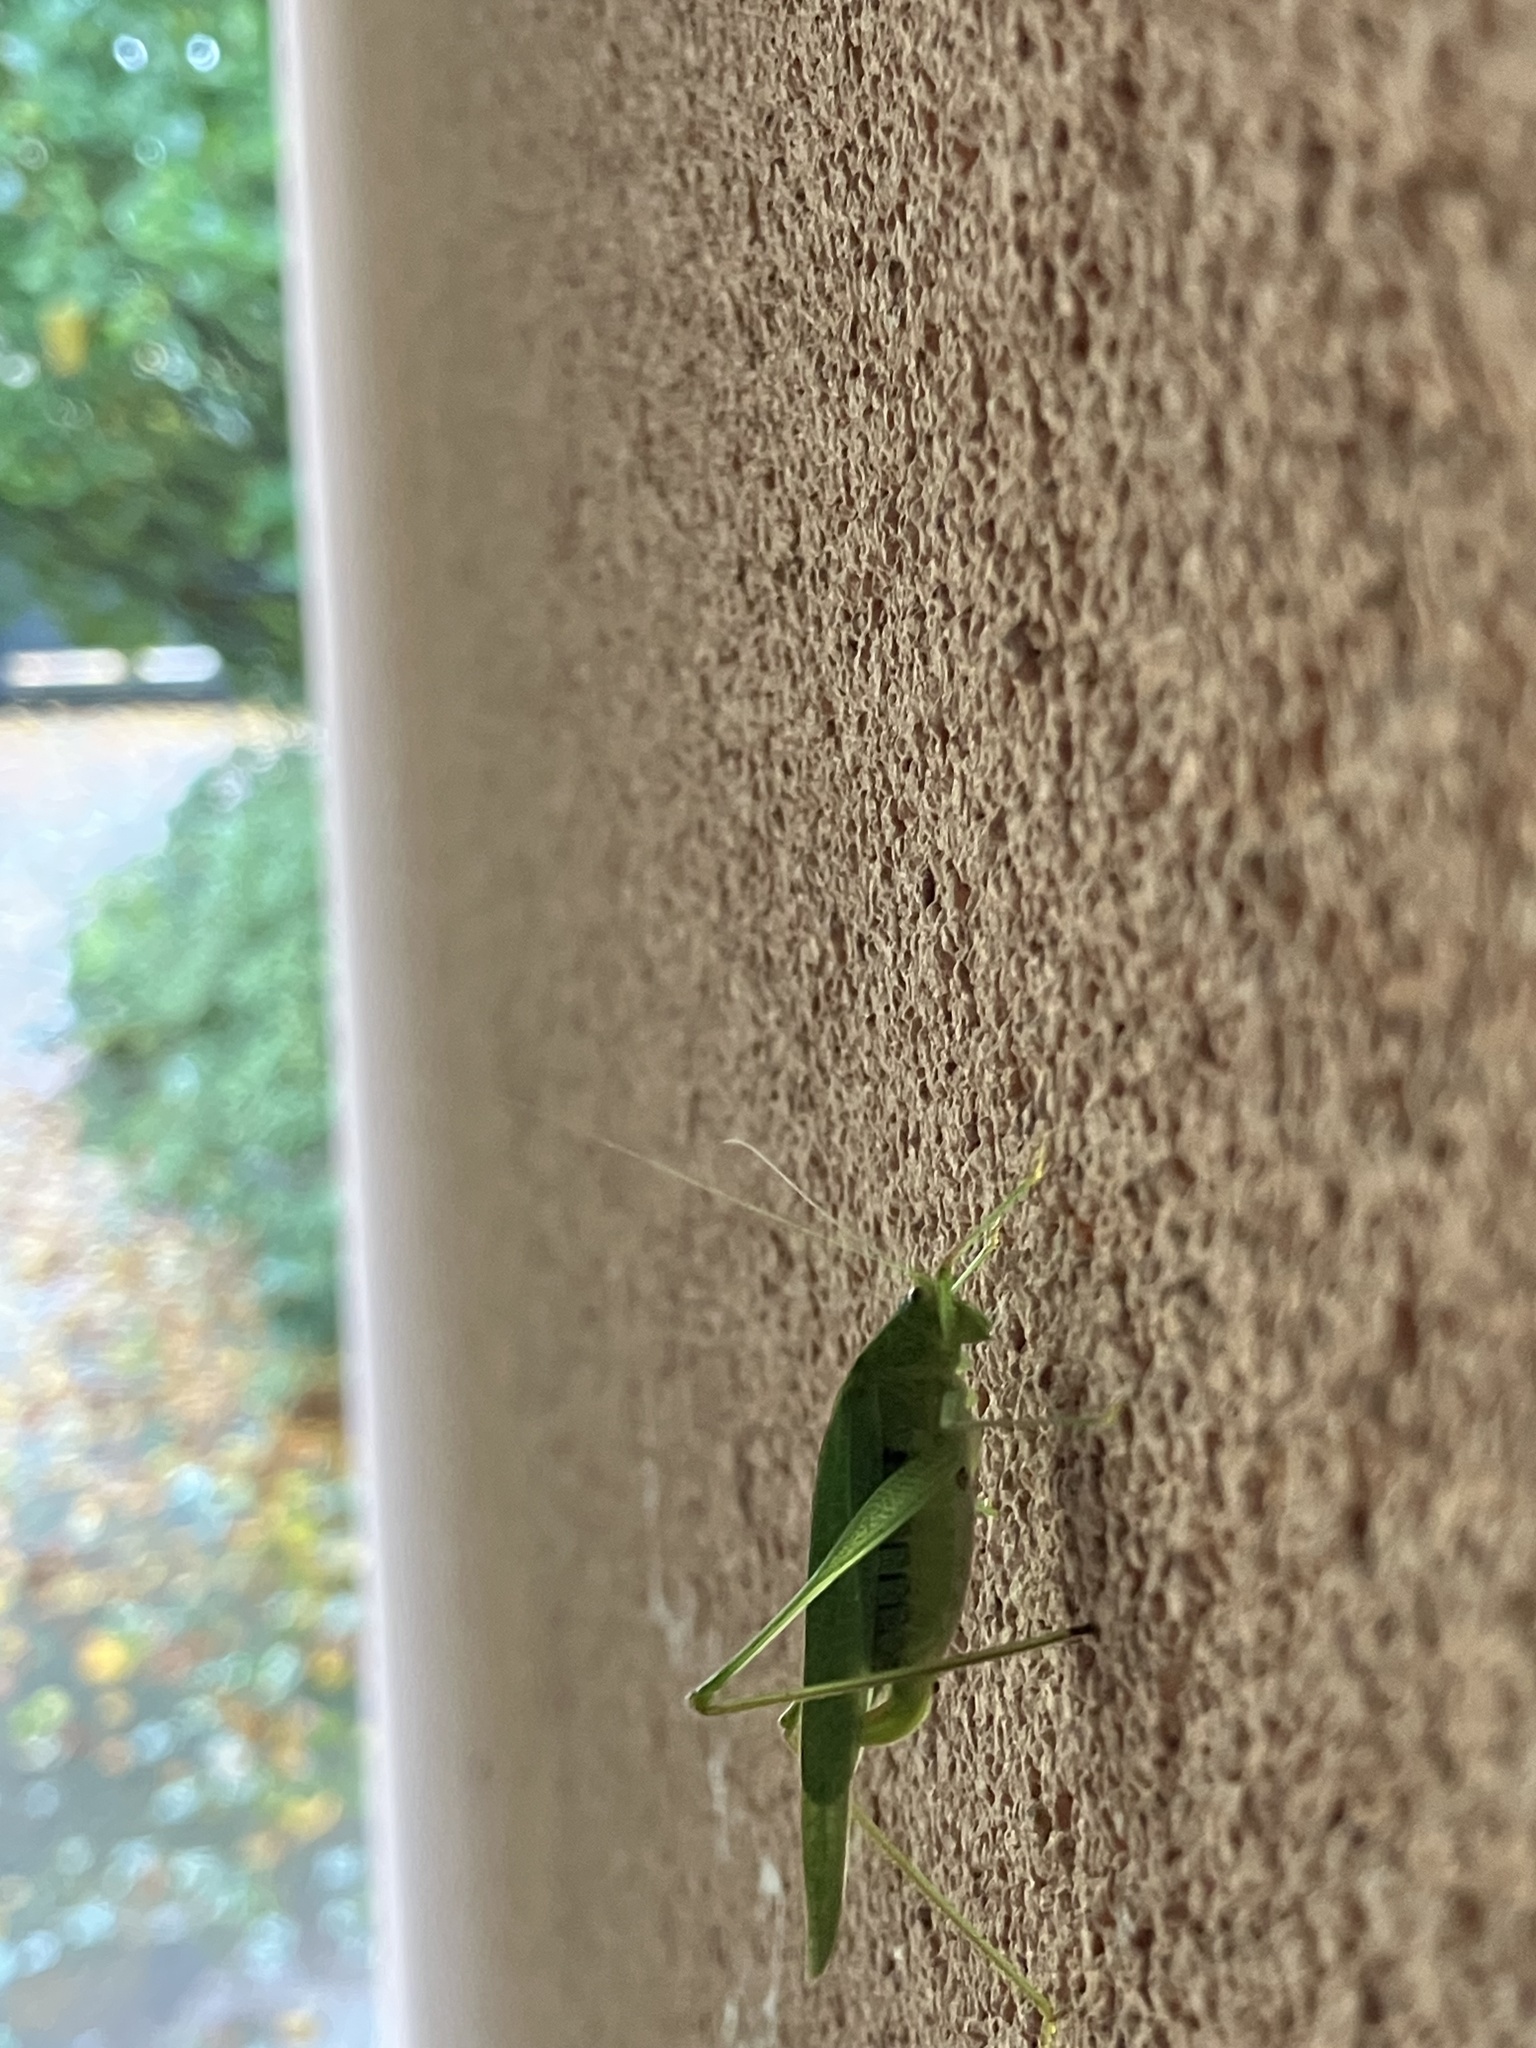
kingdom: Animalia
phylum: Arthropoda
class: Insecta
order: Orthoptera
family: Tettigoniidae
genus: Phaneroptera
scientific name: Phaneroptera nana
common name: Southern sickle bush-cricket
